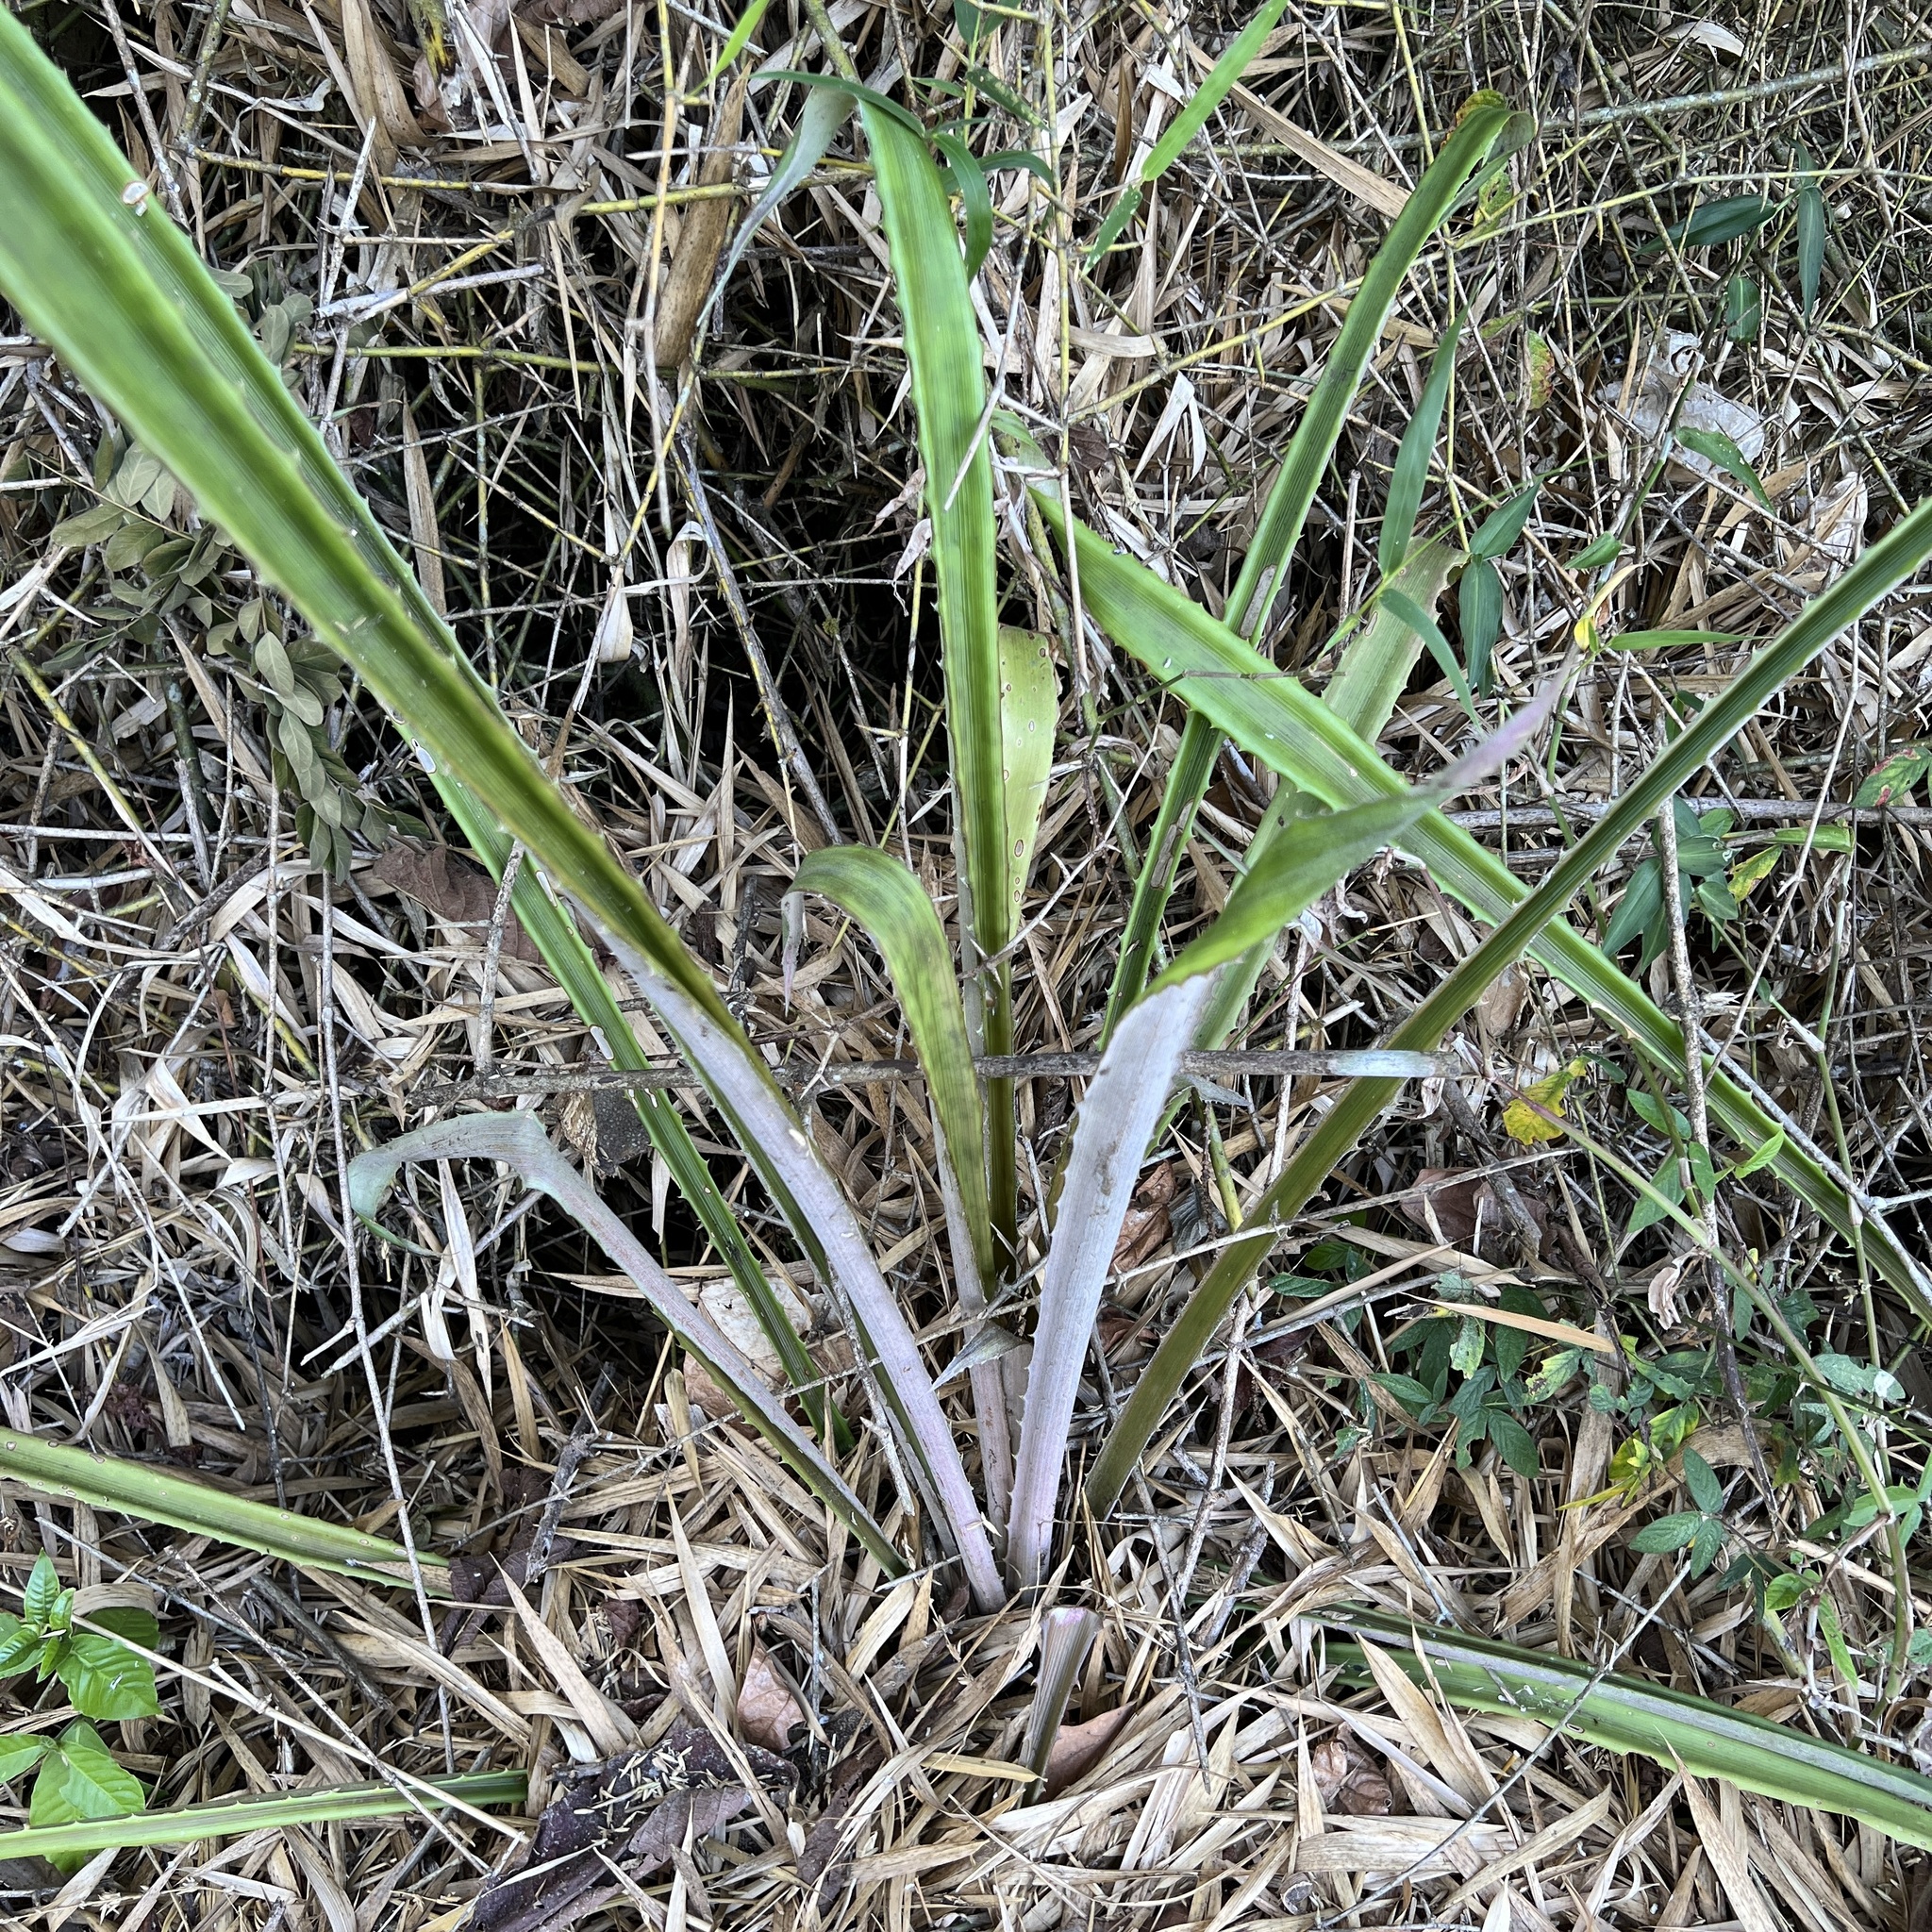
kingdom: Plantae
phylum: Tracheophyta
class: Liliopsida
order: Poales
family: Bromeliaceae
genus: Aechmea
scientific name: Aechmea magdalenae
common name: Arghan
